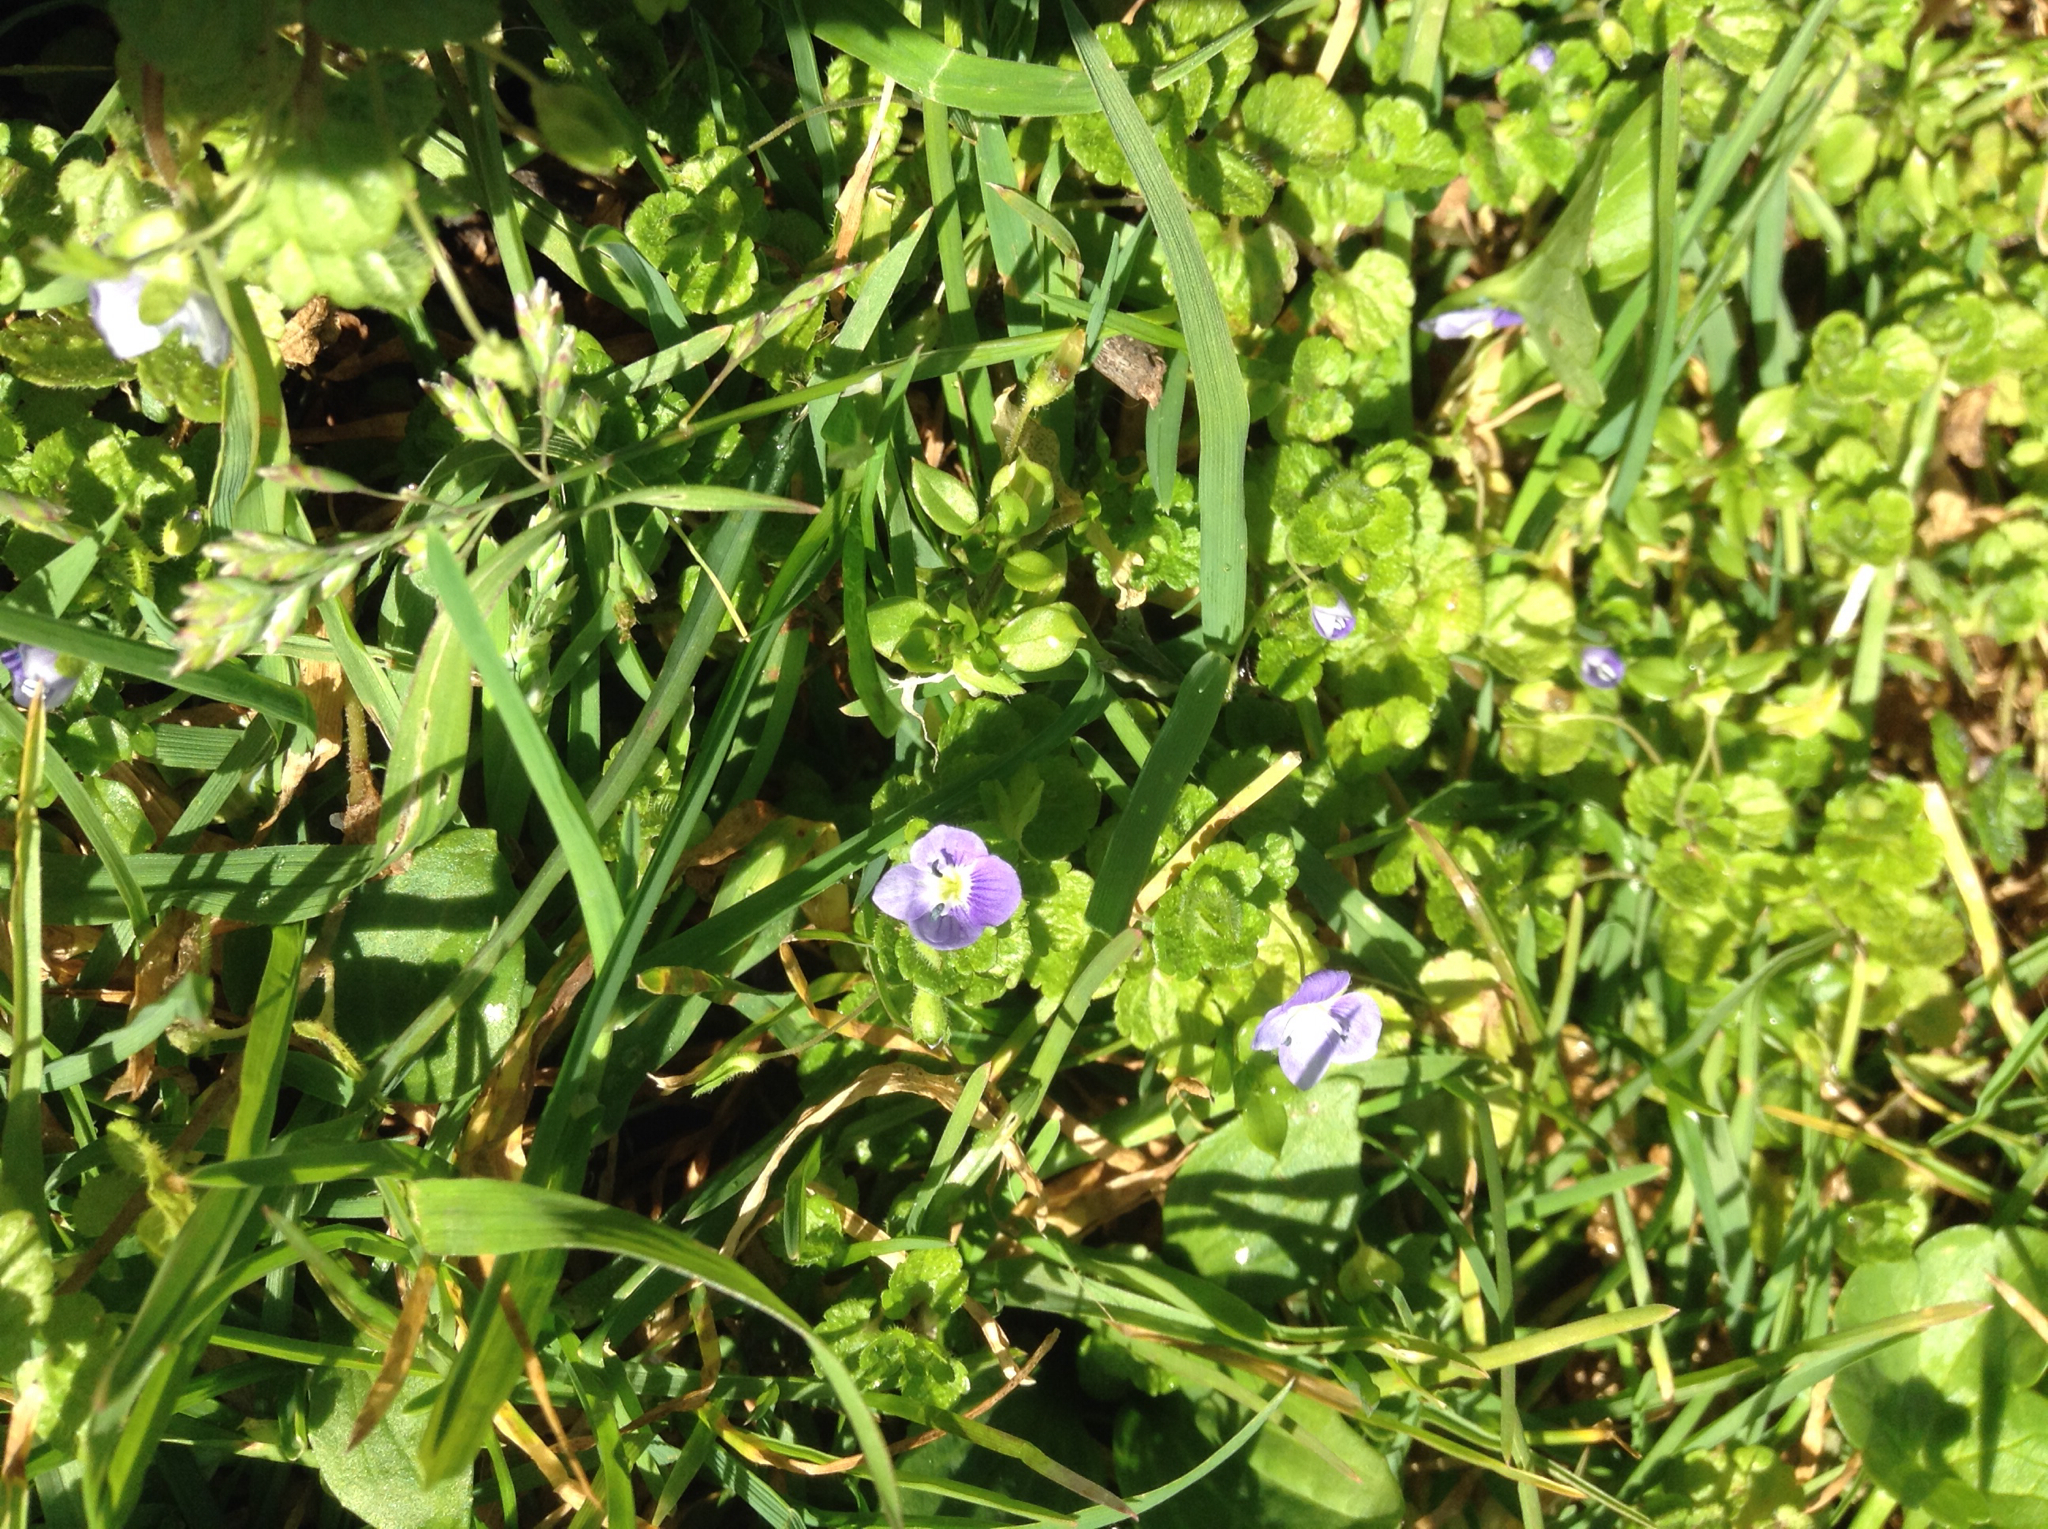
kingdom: Plantae
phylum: Tracheophyta
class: Magnoliopsida
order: Lamiales
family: Plantaginaceae
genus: Veronica
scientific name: Veronica filiformis
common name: Slender speedwell
